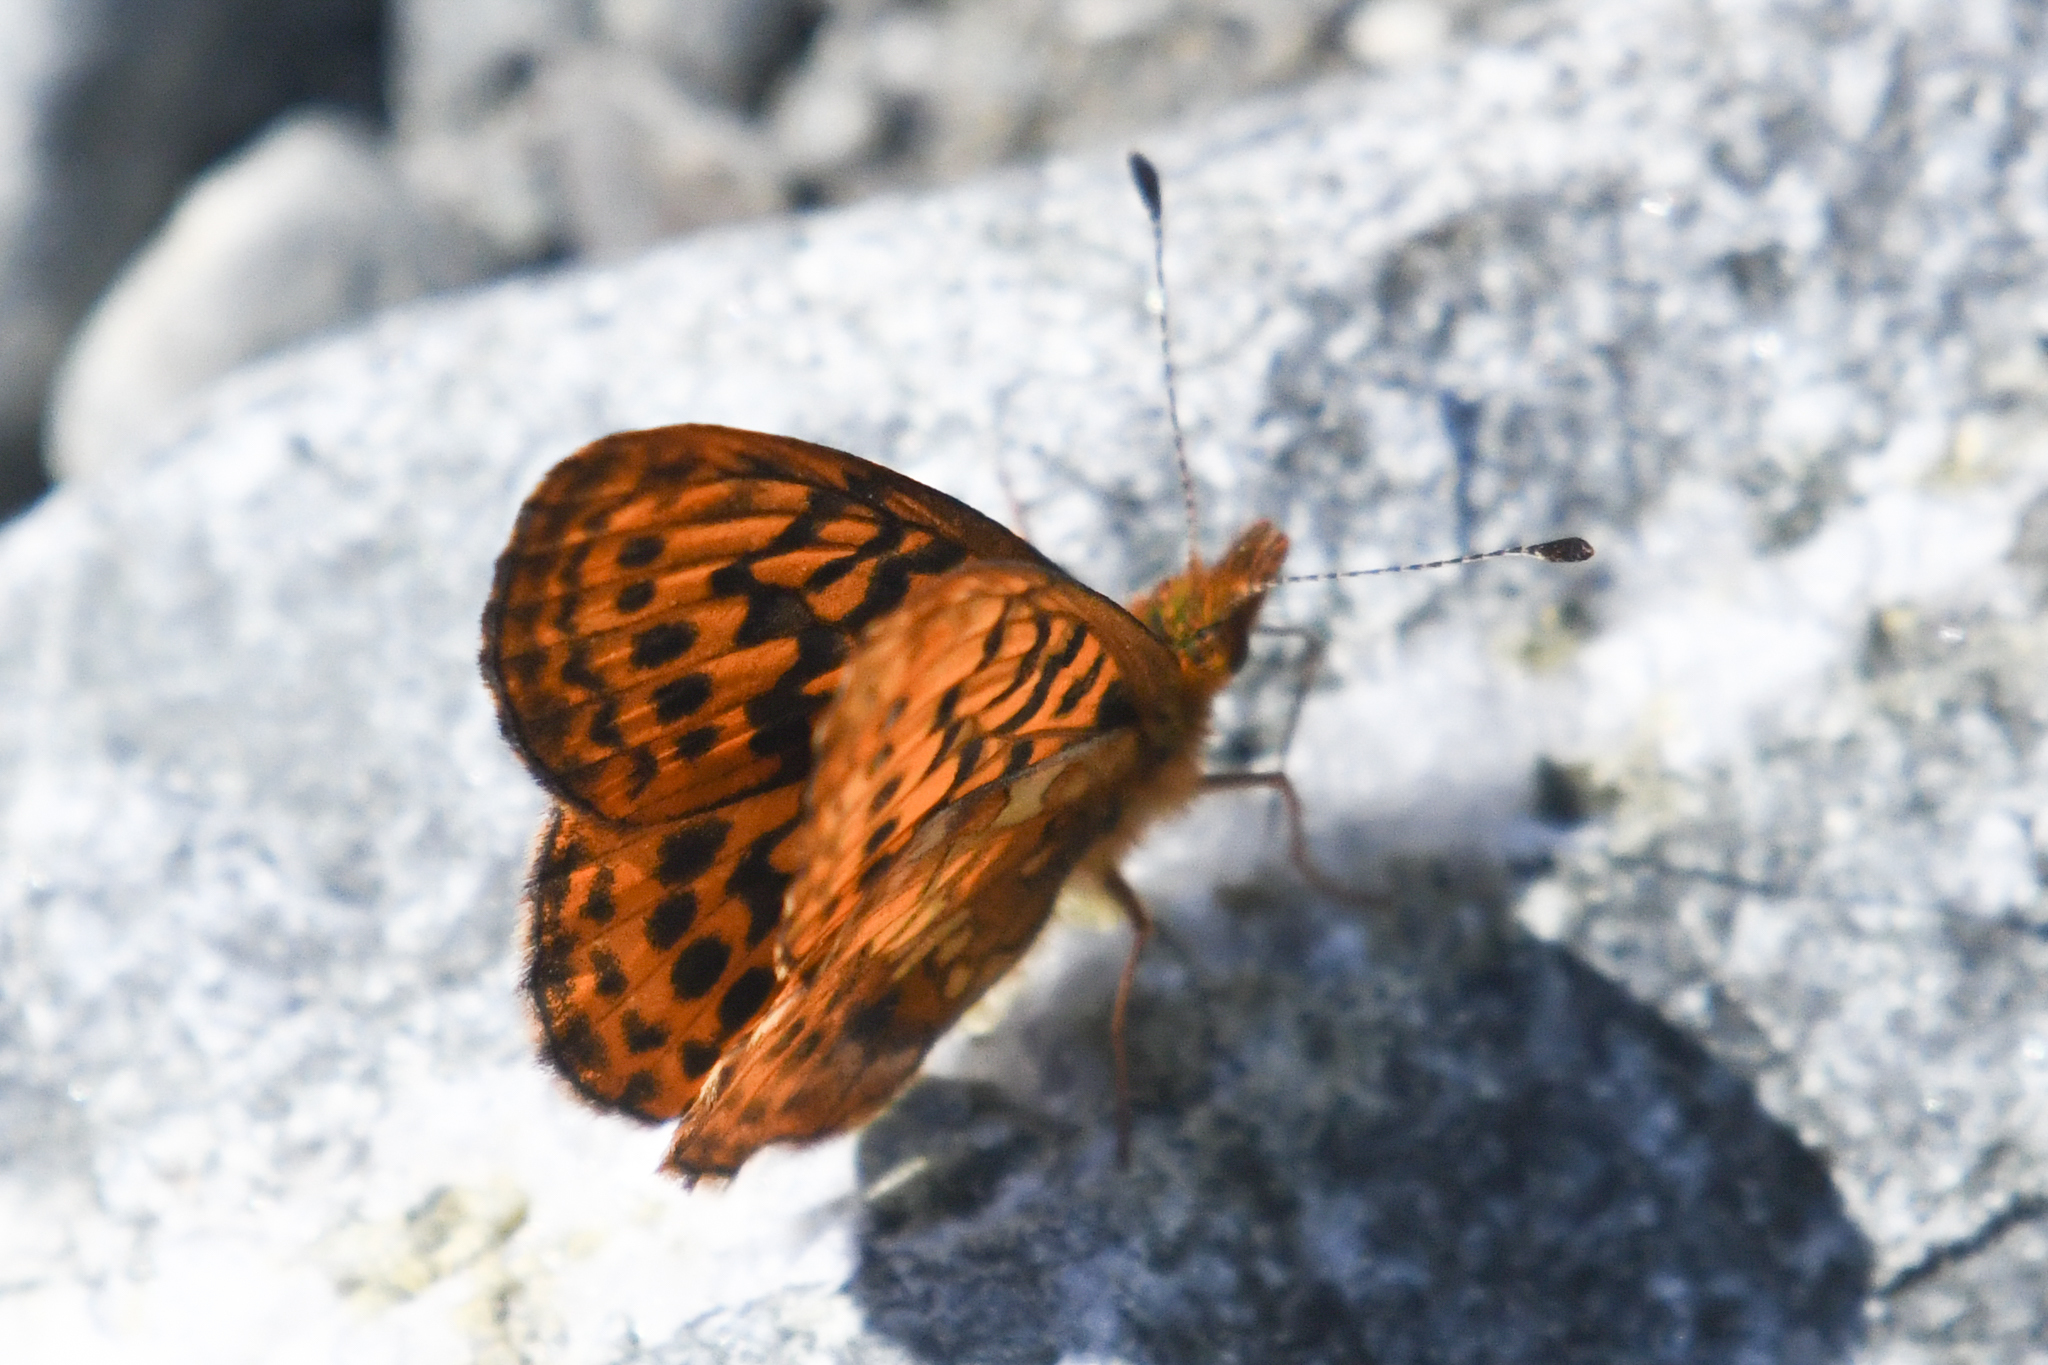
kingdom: Animalia
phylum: Arthropoda
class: Insecta
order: Lepidoptera
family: Nymphalidae
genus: Boloria
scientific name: Boloria epithore
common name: Pacific fritillary
